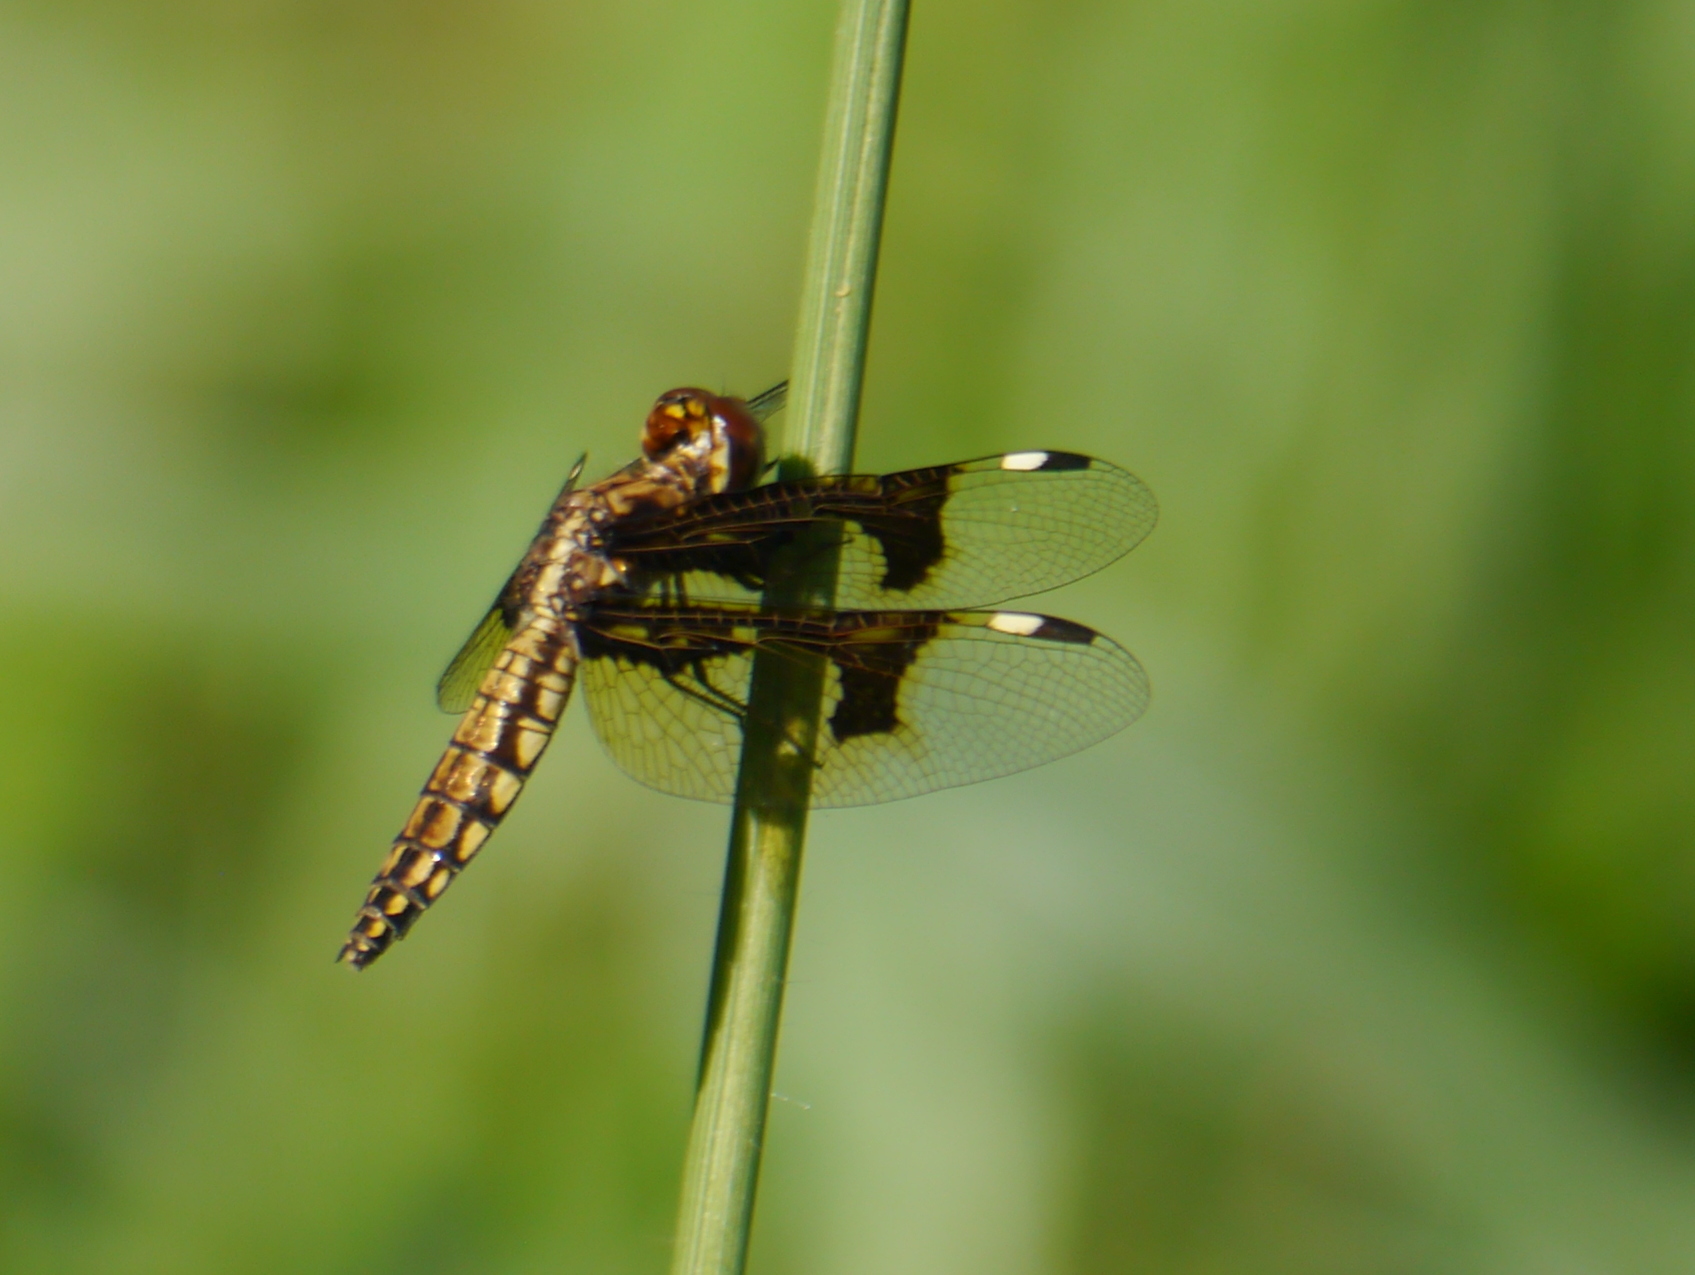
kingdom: Animalia
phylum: Arthropoda
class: Insecta
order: Odonata
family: Libellulidae
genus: Palpopleura
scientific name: Palpopleura lucia
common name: Lucia widow
